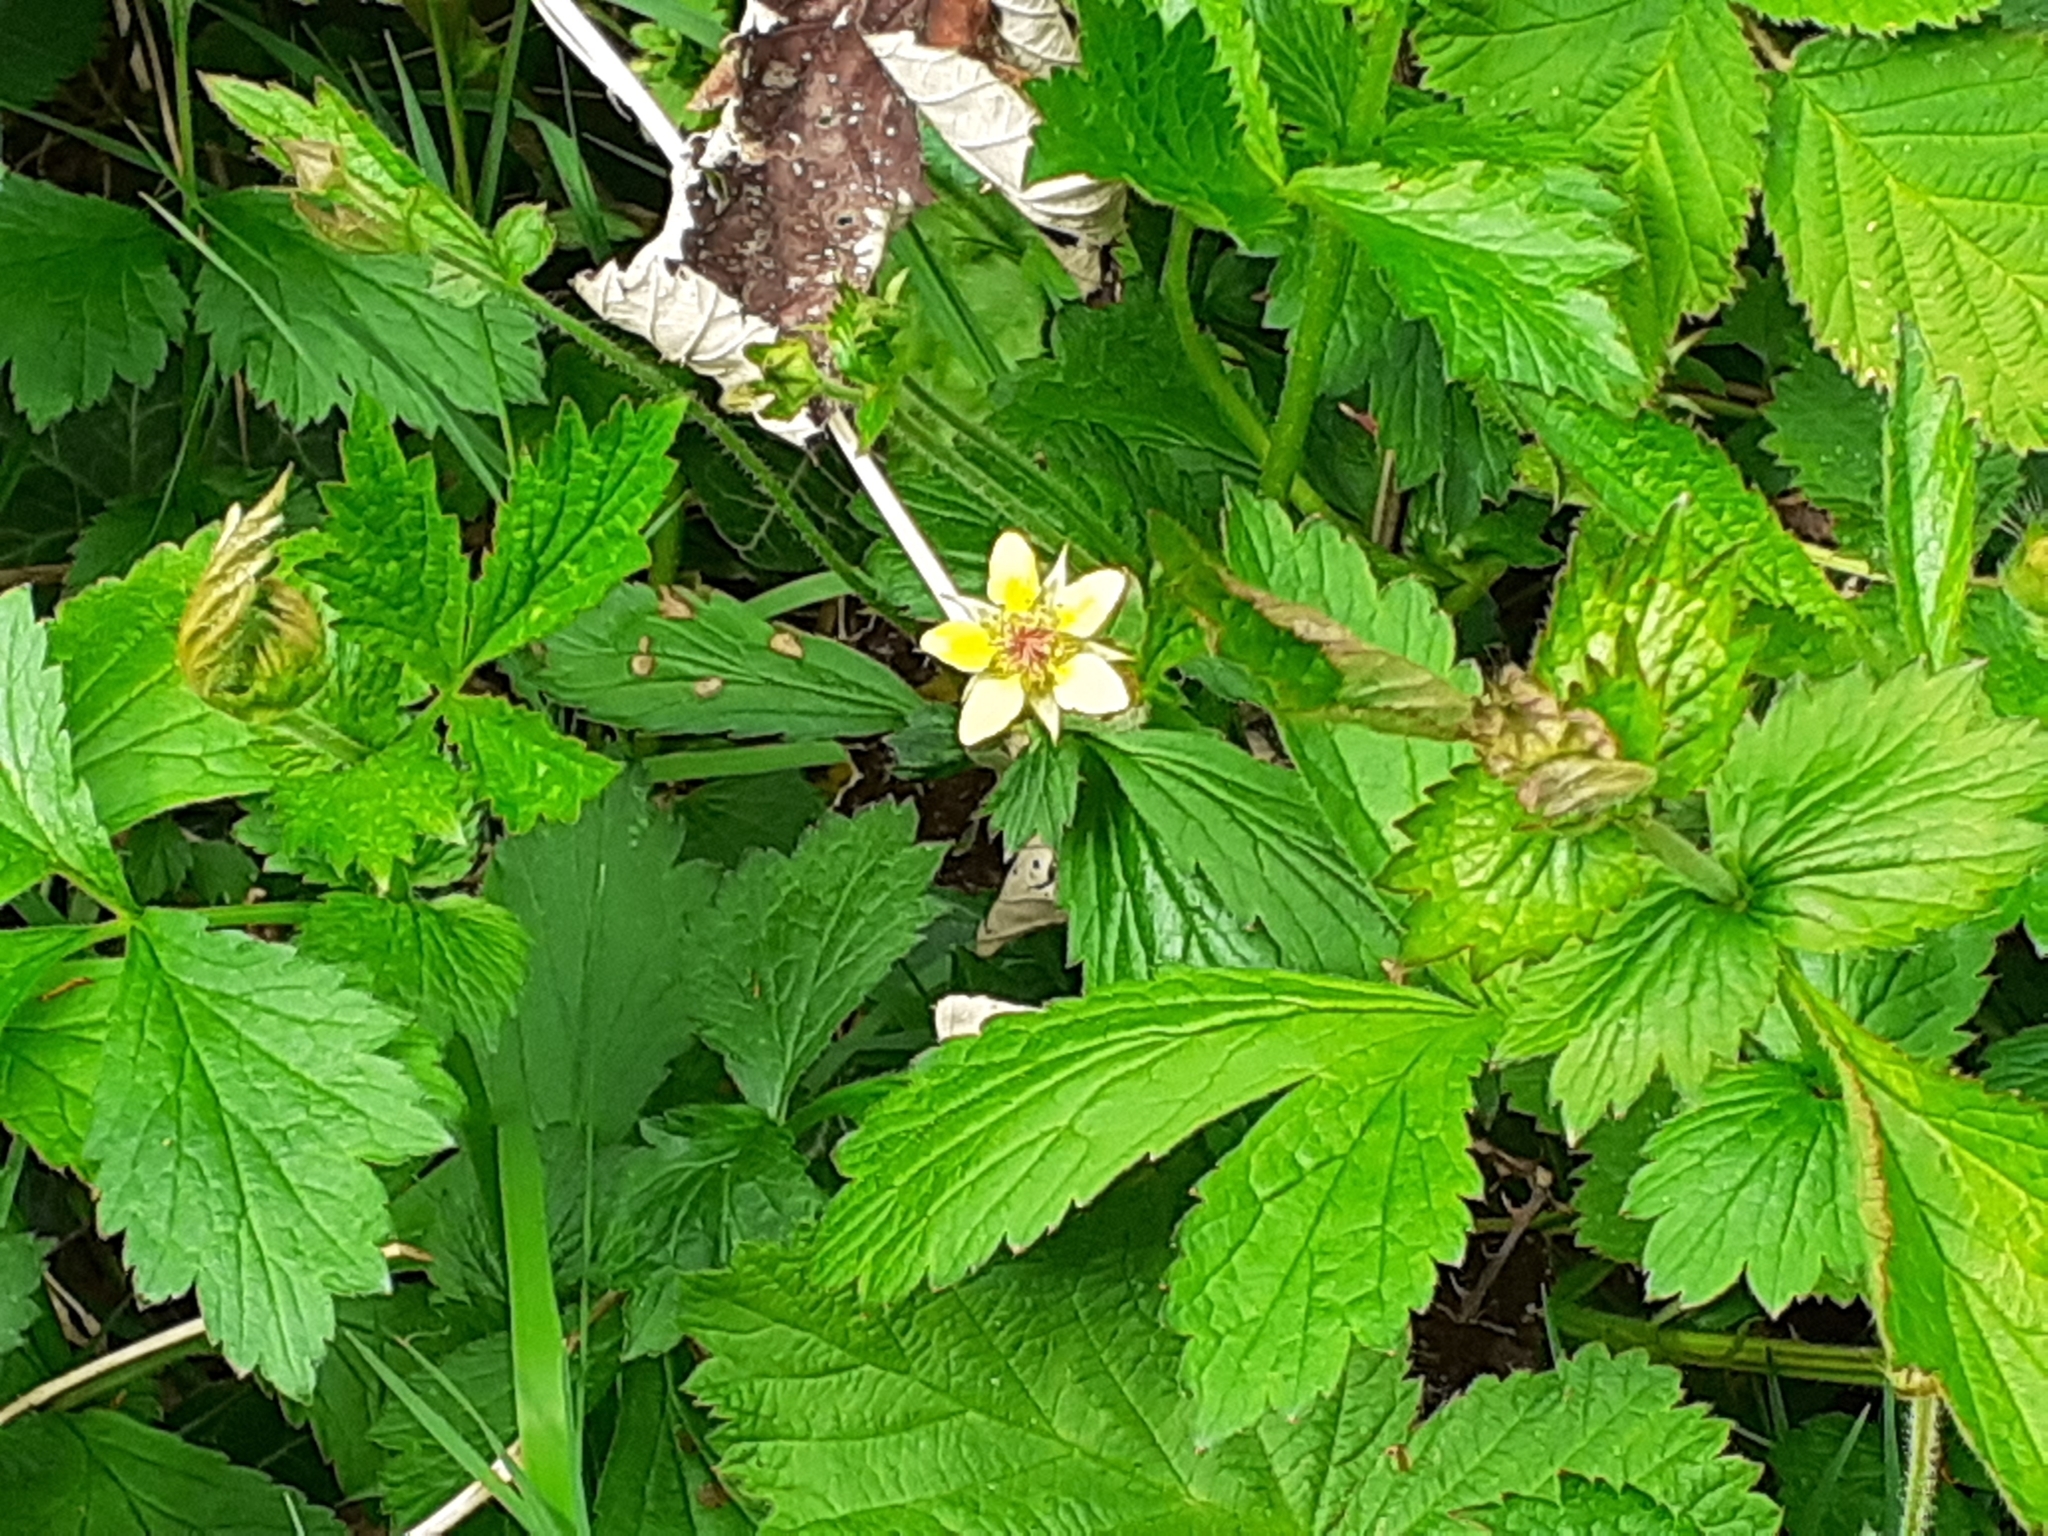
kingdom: Plantae
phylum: Tracheophyta
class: Magnoliopsida
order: Rosales
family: Rosaceae
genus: Geum
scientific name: Geum urbanum
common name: Wood avens
